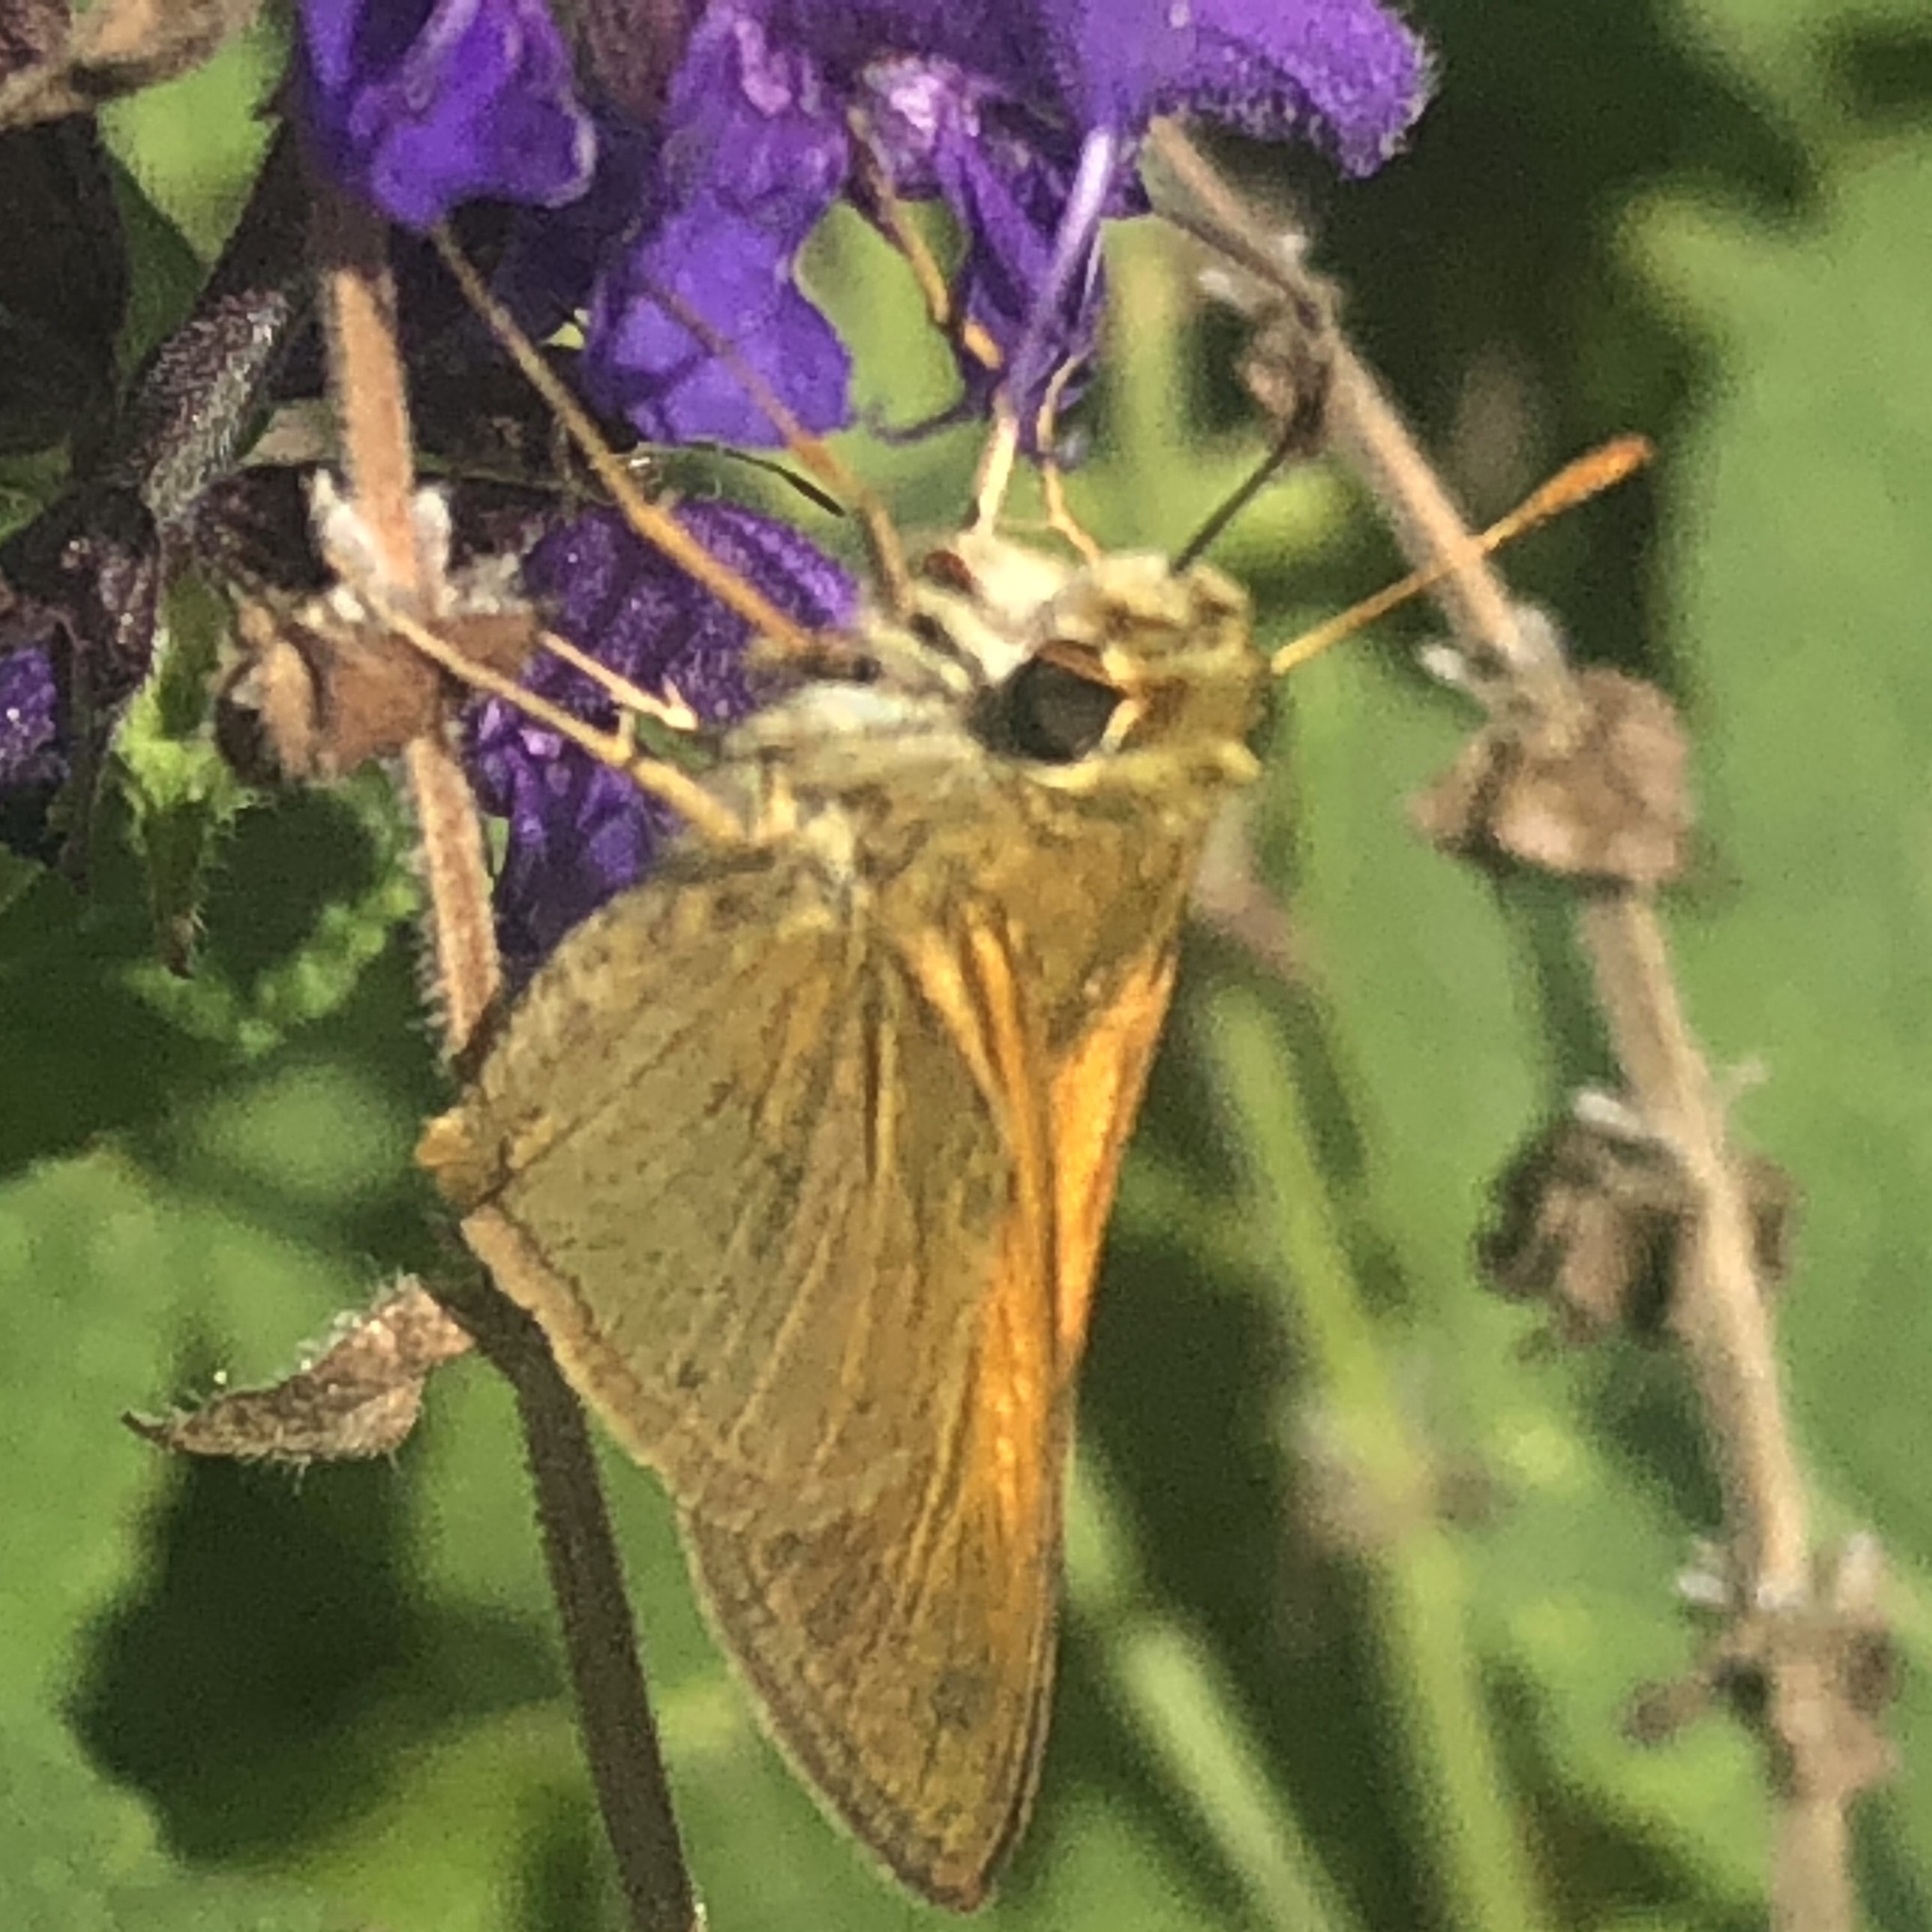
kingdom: Animalia
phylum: Arthropoda
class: Insecta
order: Lepidoptera
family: Hesperiidae
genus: Polites
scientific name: Polites themistocles
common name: Tawny-edged skipper
